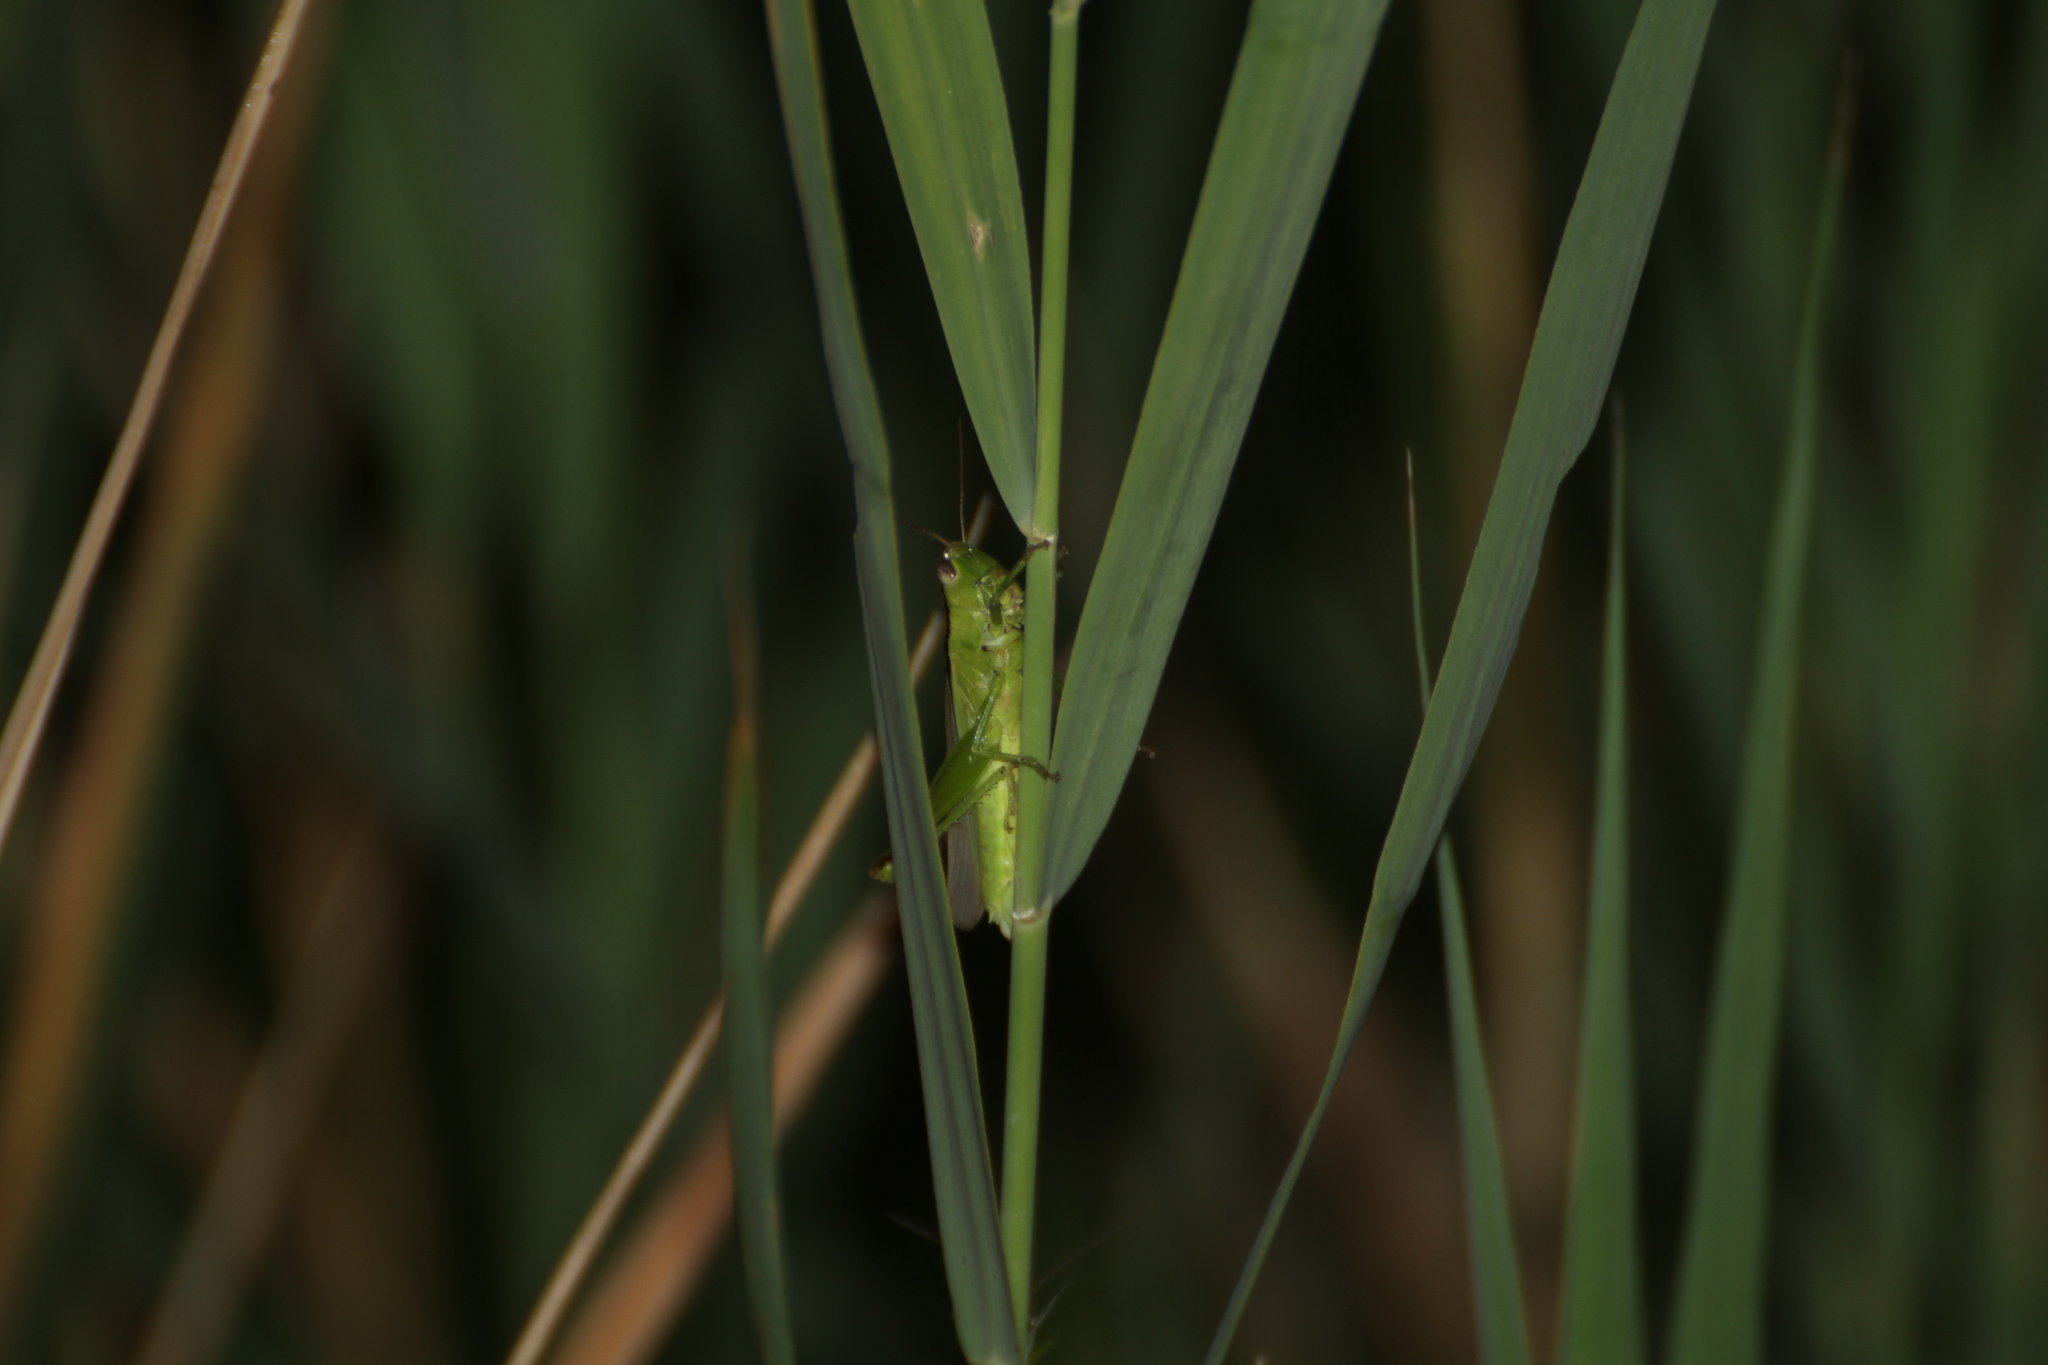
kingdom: Animalia
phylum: Arthropoda
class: Insecta
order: Orthoptera
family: Acrididae
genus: Mecostethus
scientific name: Mecostethus parapleurus
